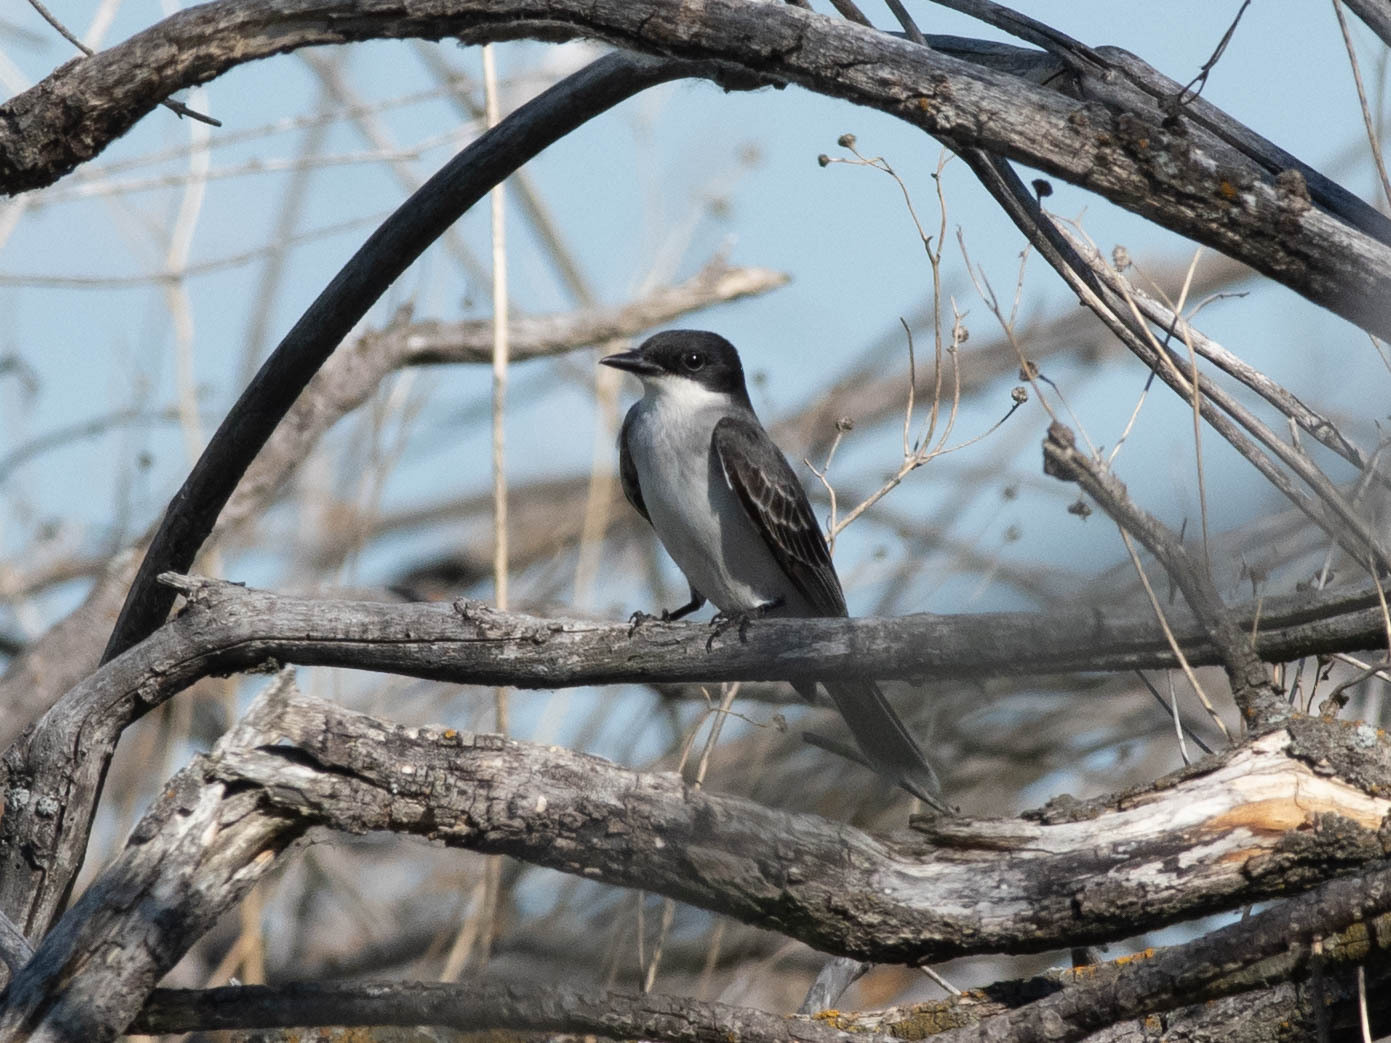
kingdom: Animalia
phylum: Chordata
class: Aves
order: Passeriformes
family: Tyrannidae
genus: Tyrannus
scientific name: Tyrannus tyrannus
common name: Eastern kingbird
